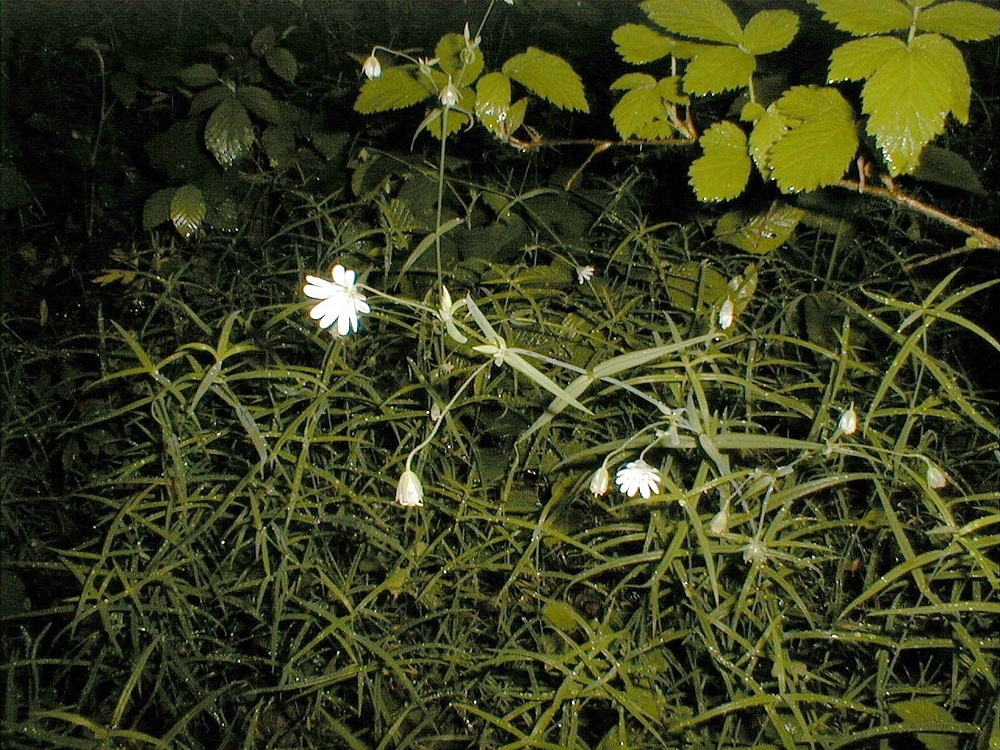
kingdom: Plantae
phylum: Tracheophyta
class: Magnoliopsida
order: Caryophyllales
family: Caryophyllaceae
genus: Rabelera
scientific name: Rabelera holostea
